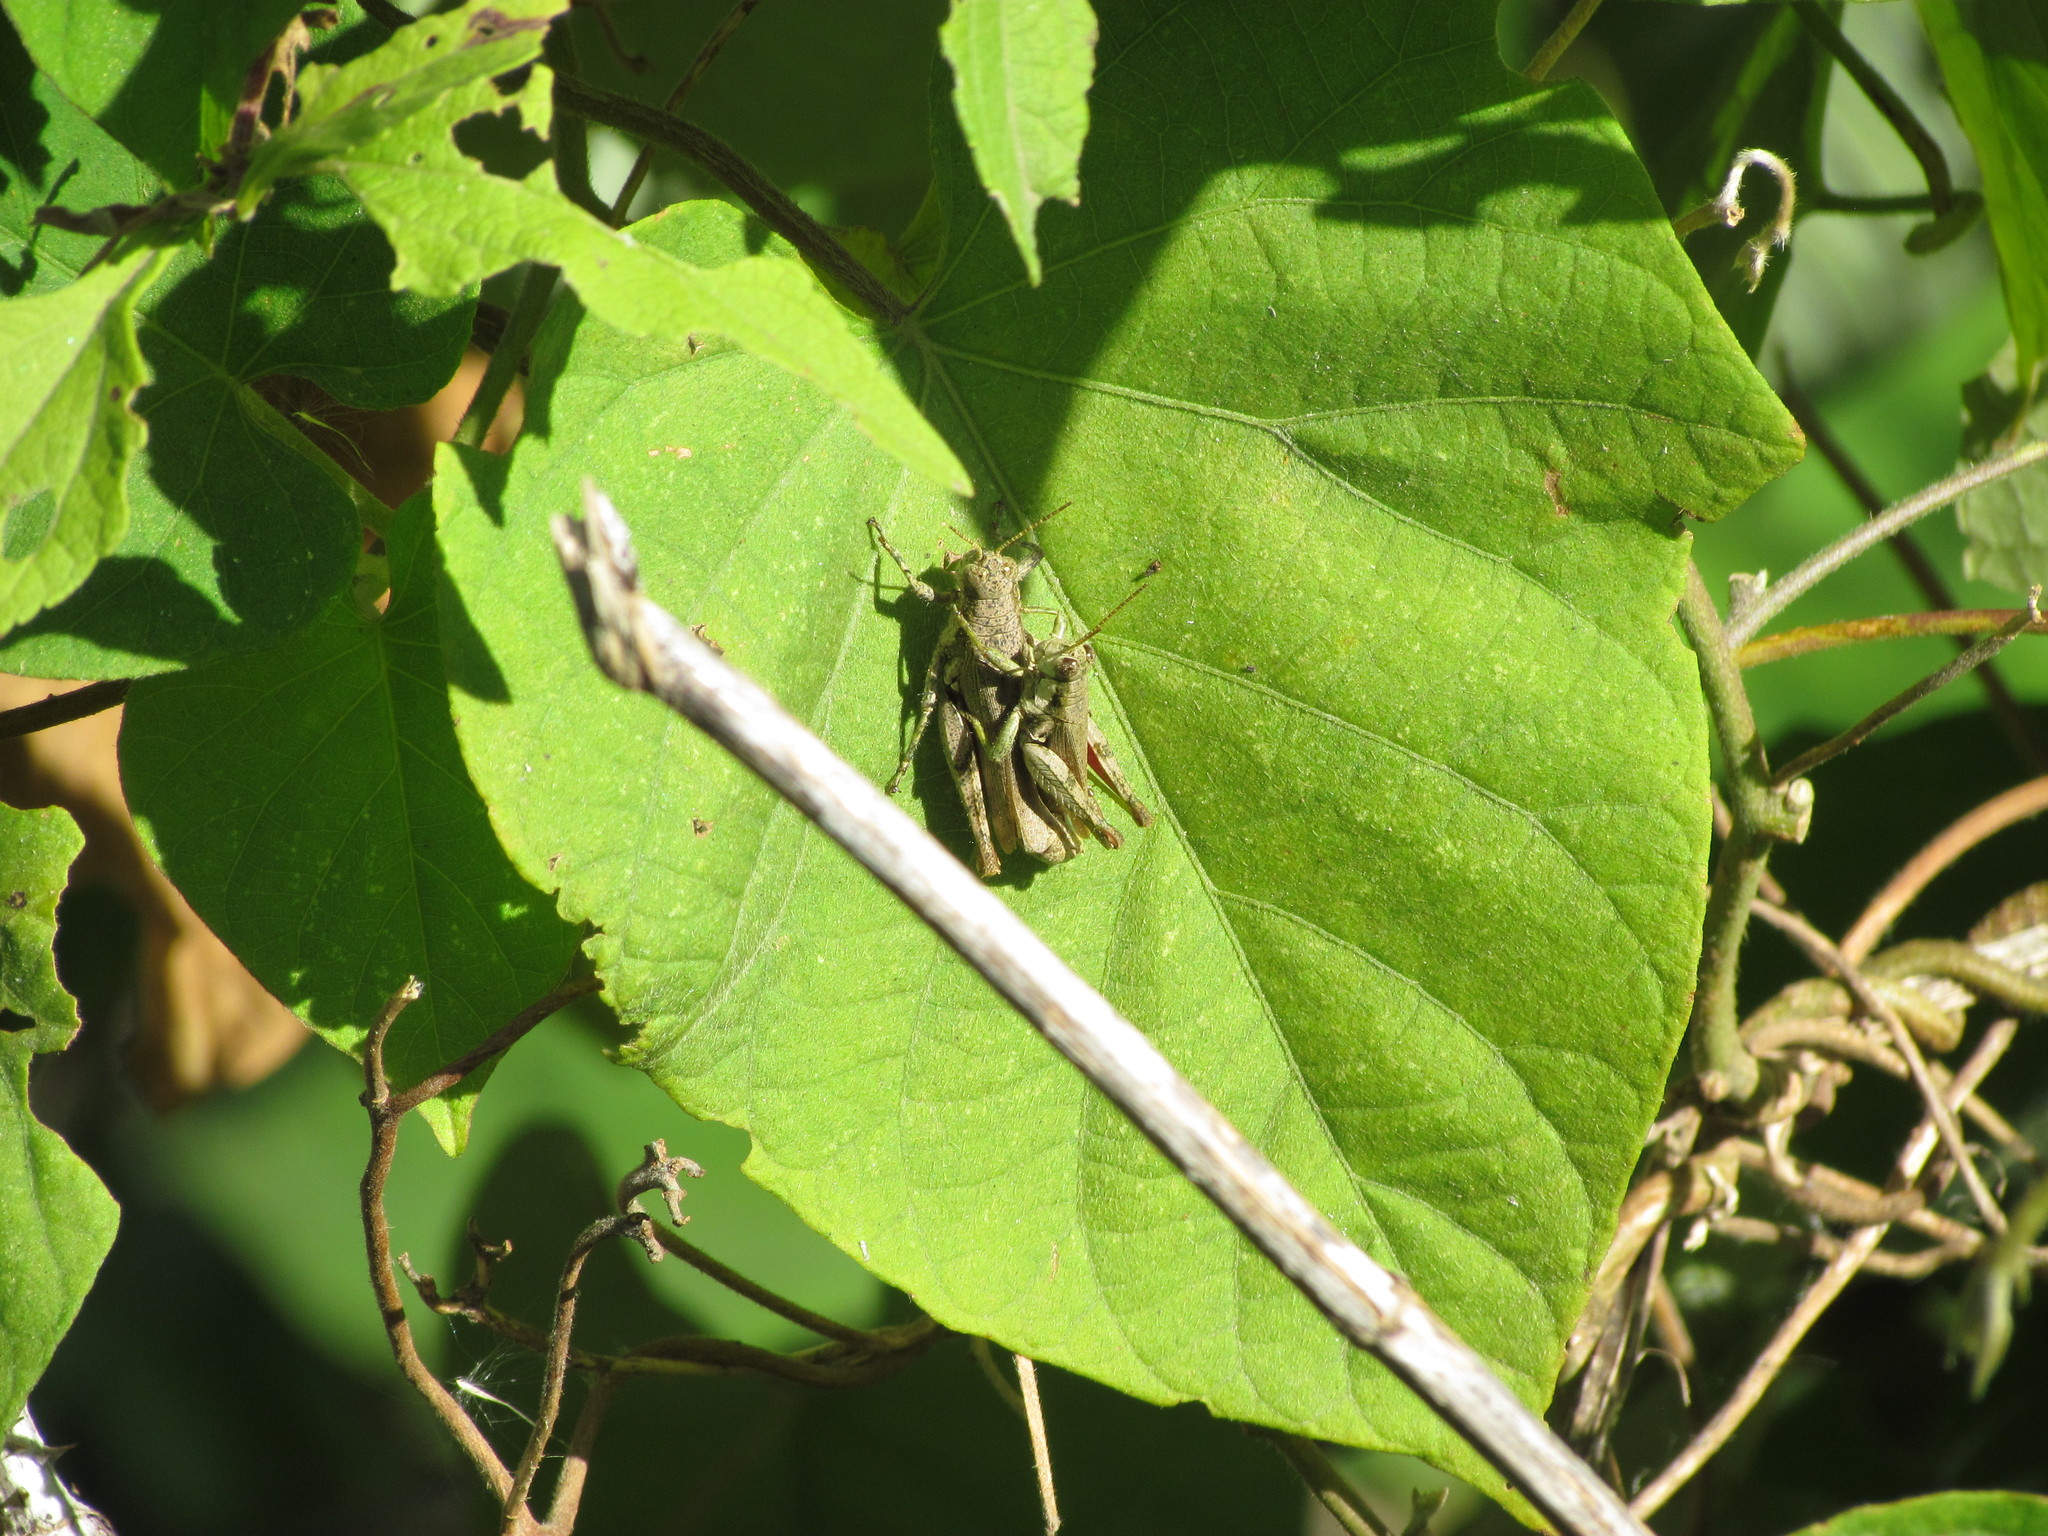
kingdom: Animalia
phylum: Arthropoda
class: Insecta
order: Orthoptera
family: Acrididae
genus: Ronderosia
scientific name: Ronderosia bergii
